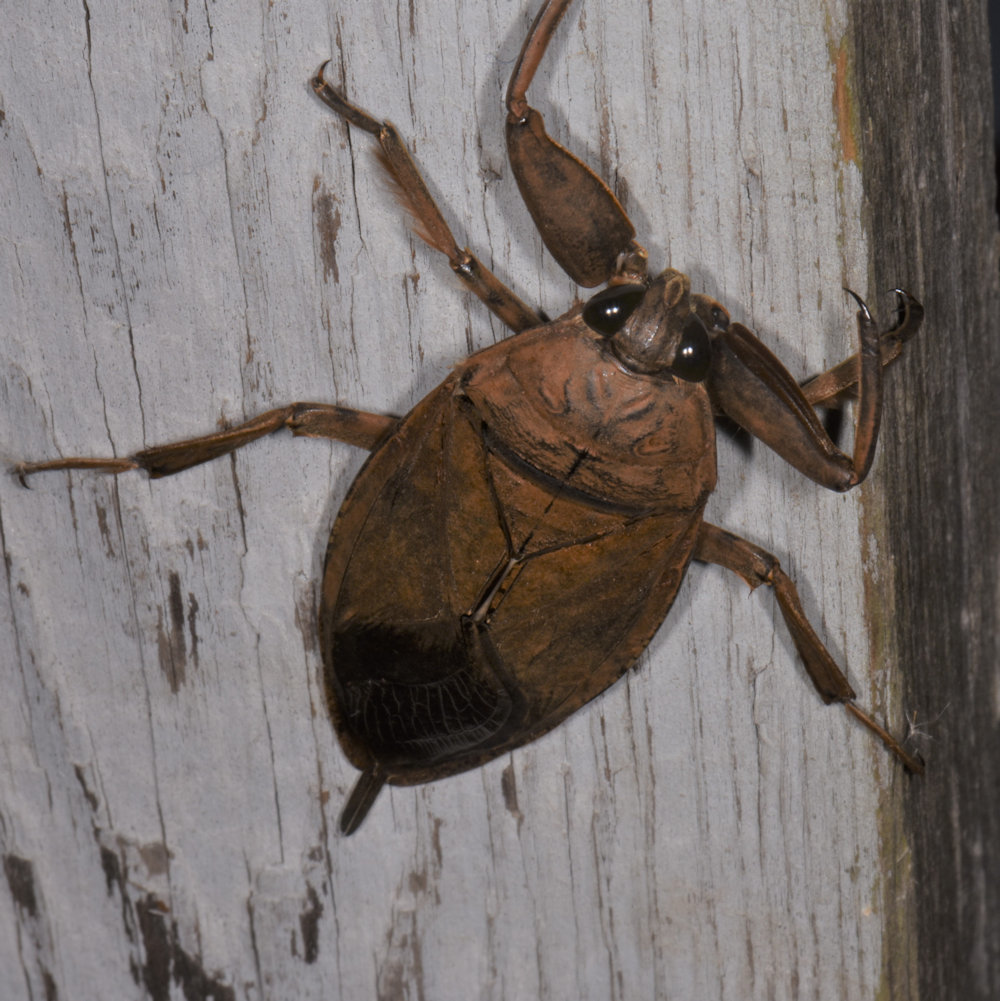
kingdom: Animalia
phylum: Arthropoda
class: Insecta
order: Hemiptera
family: Belostomatidae
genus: Lethocerus
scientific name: Lethocerus americanus
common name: Giant water bug
